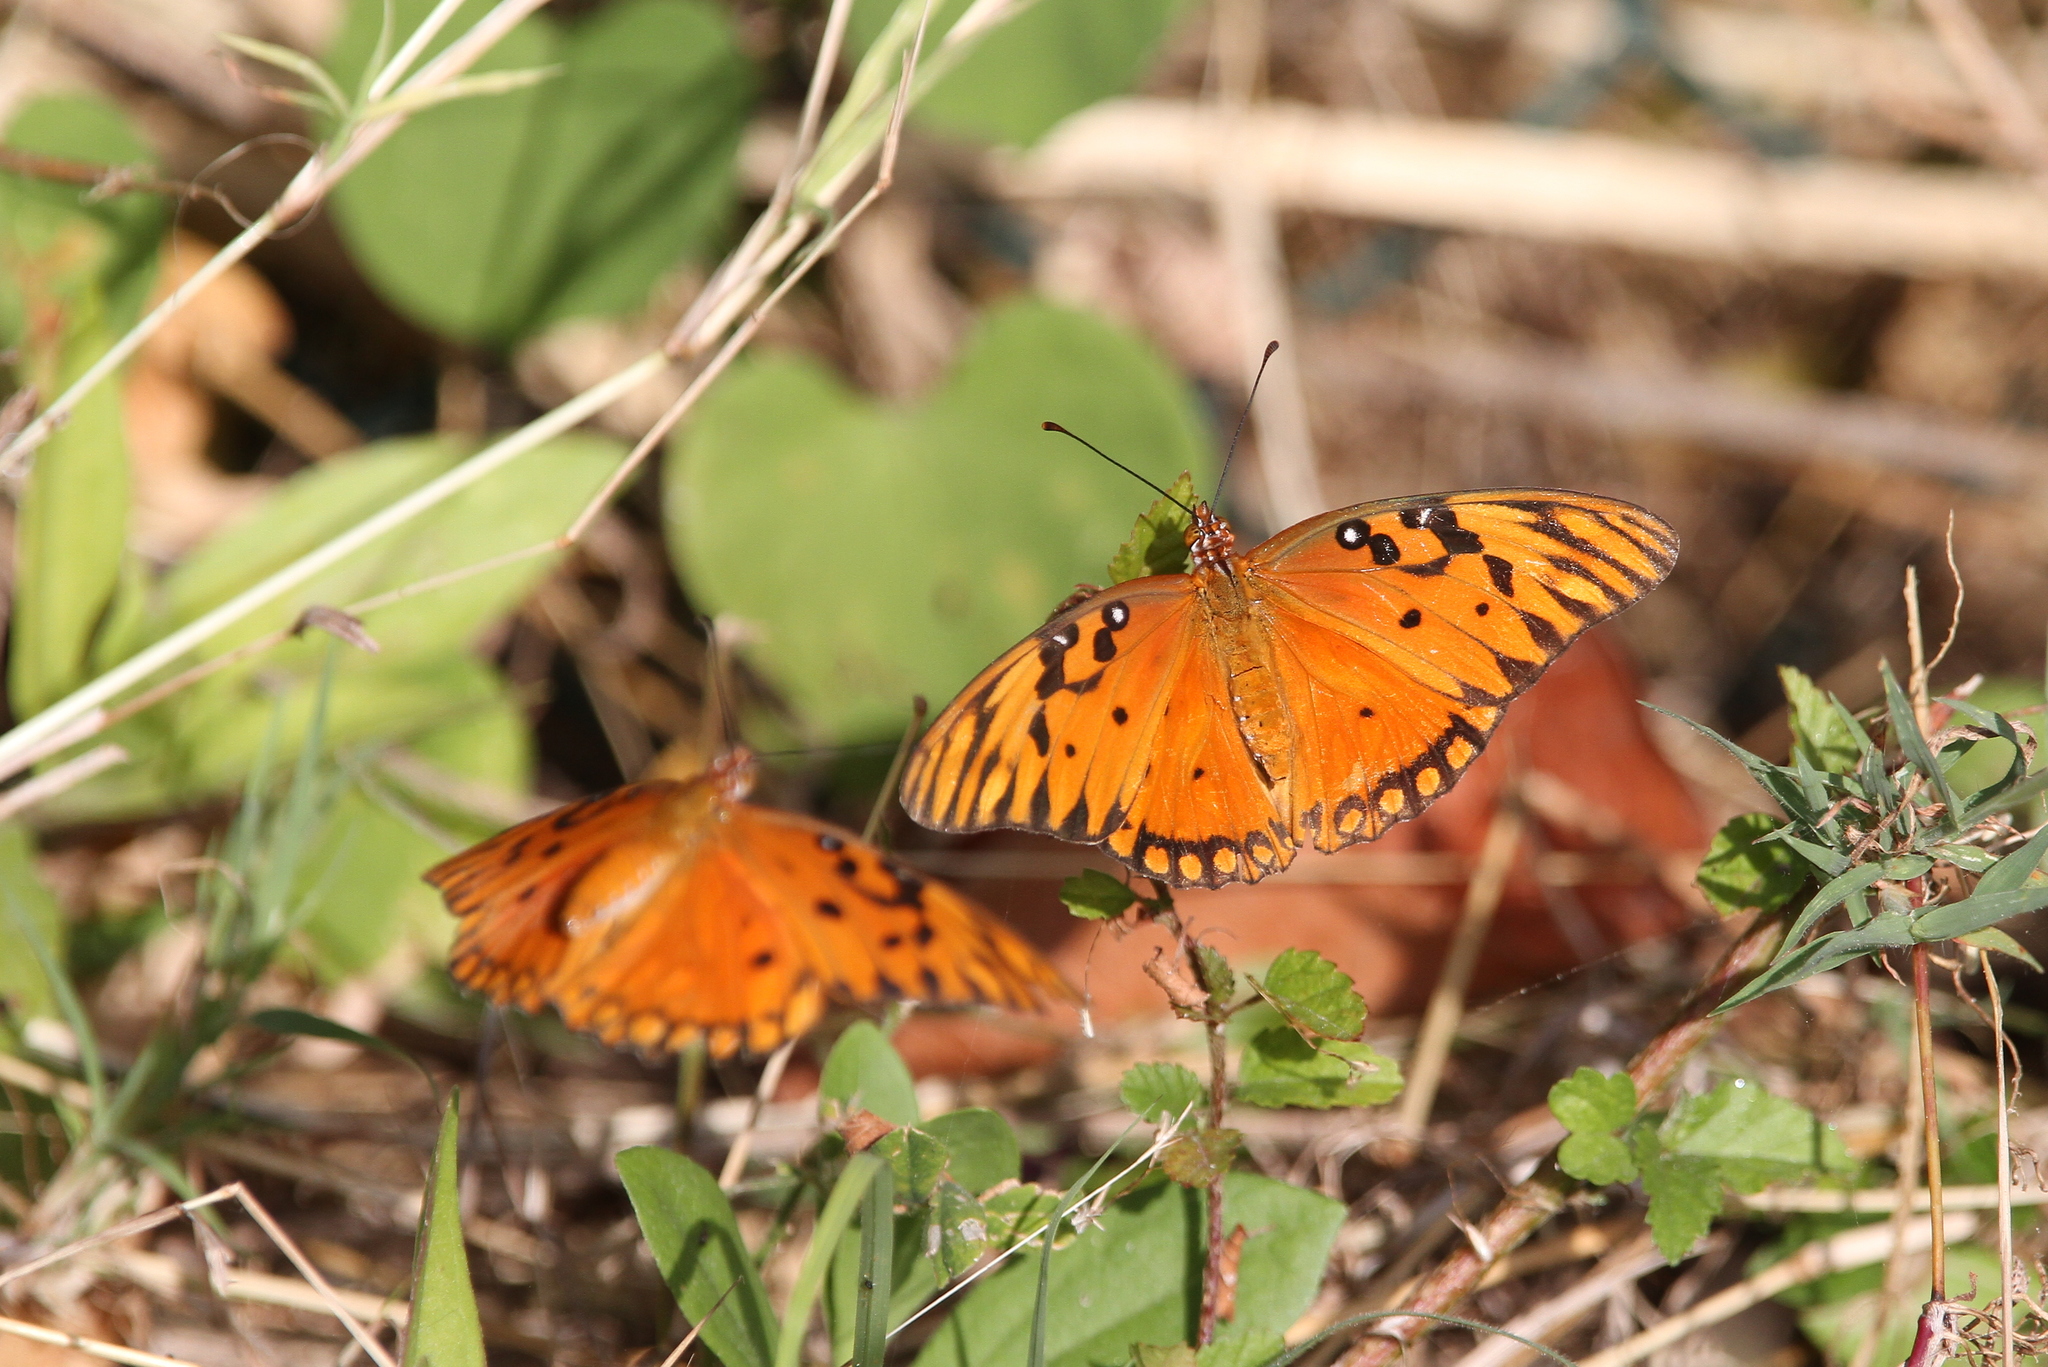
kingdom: Animalia
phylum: Arthropoda
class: Insecta
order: Lepidoptera
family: Nymphalidae
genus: Dione
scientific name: Dione vanillae
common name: Gulf fritillary
